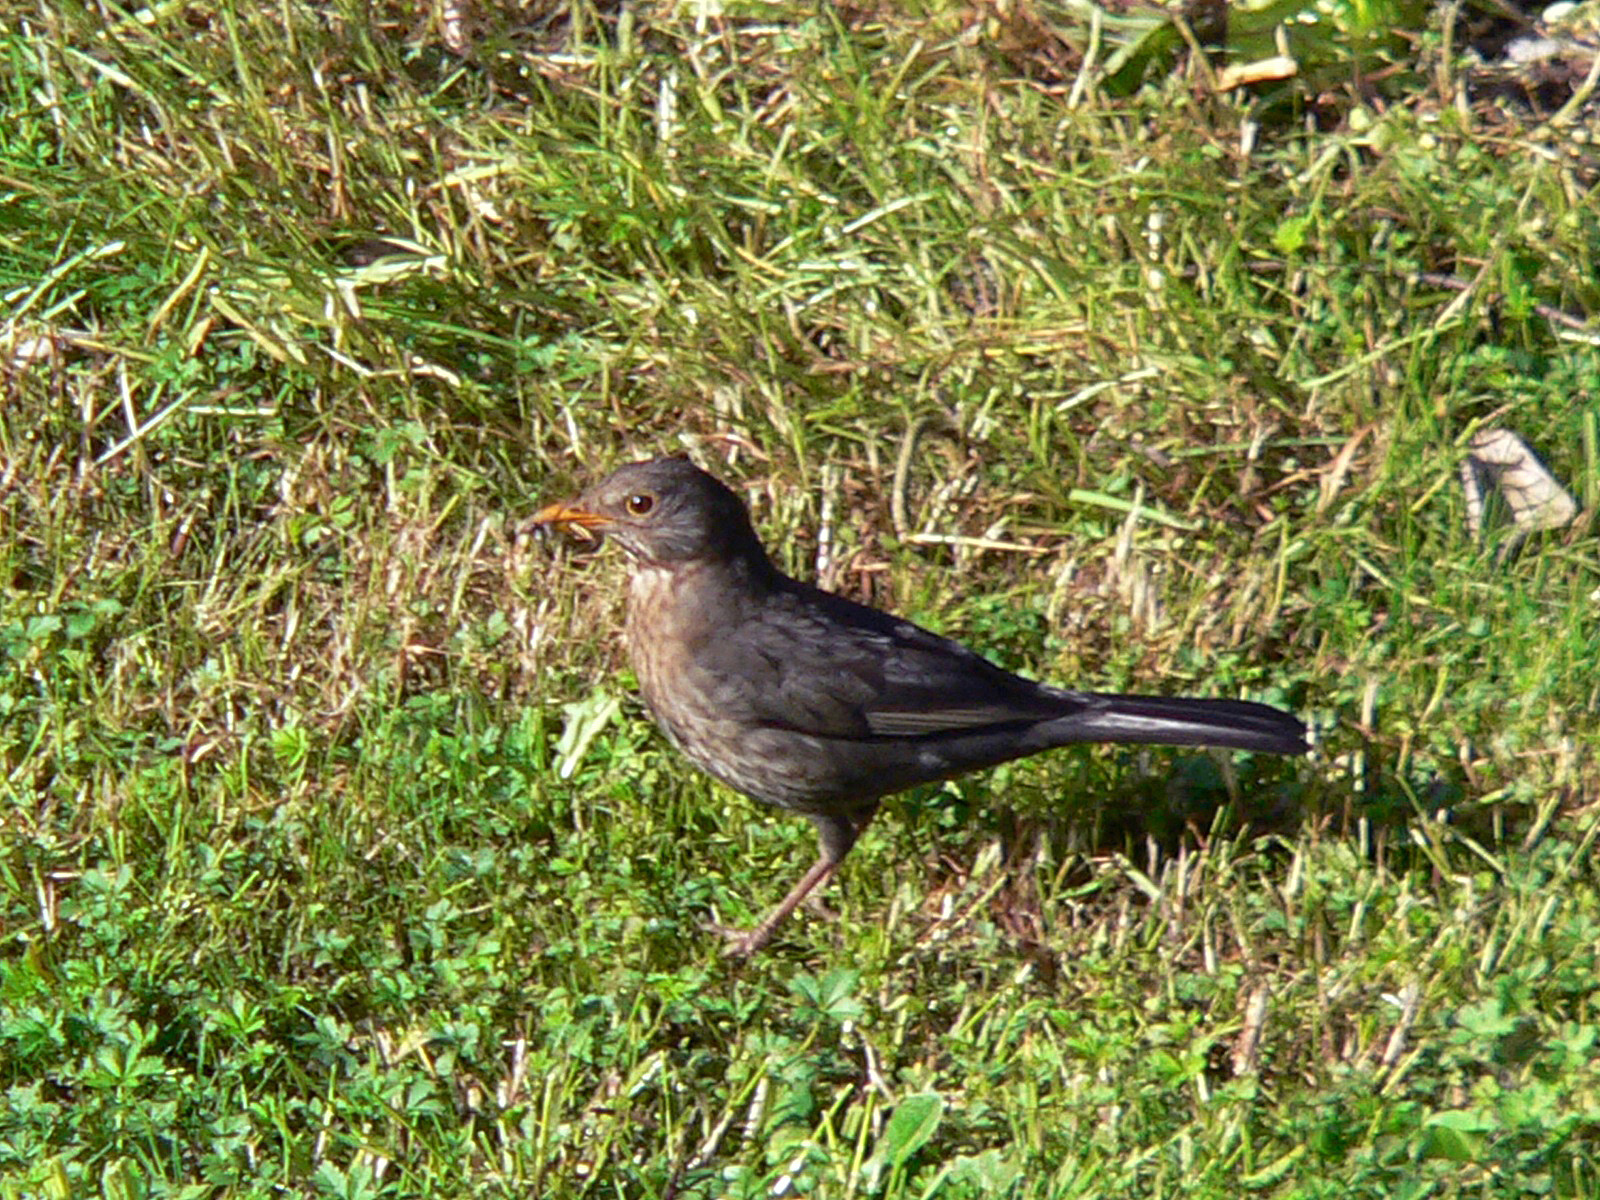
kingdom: Animalia
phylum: Chordata
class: Aves
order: Passeriformes
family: Turdidae
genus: Turdus
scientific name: Turdus merula
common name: Common blackbird
